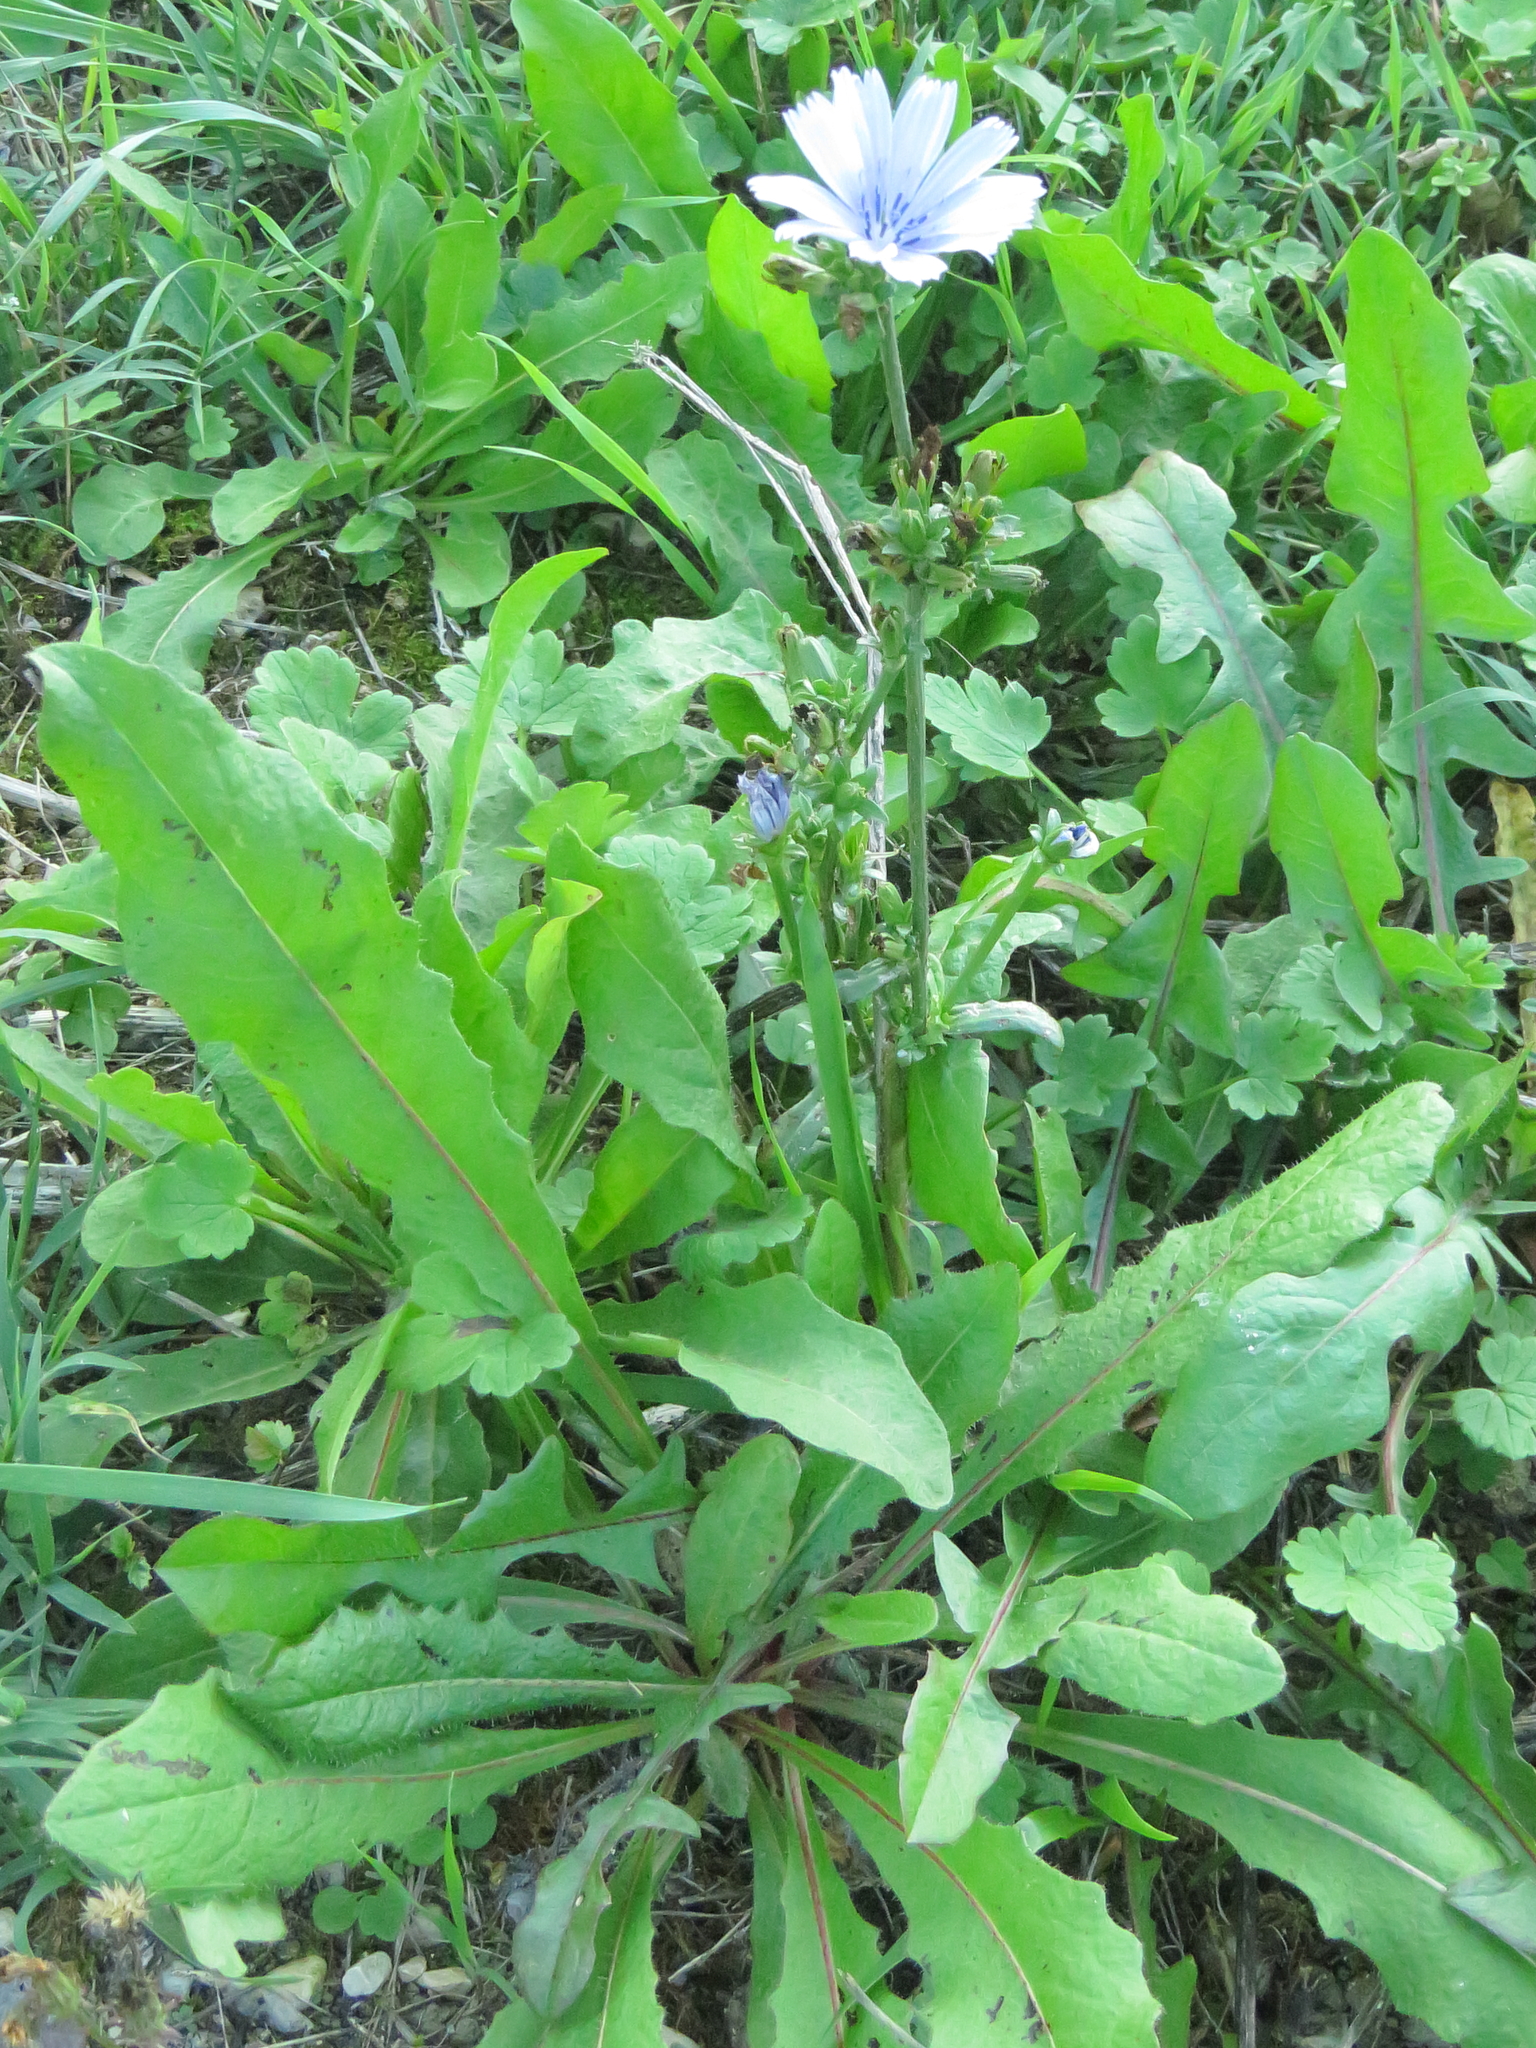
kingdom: Plantae
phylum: Tracheophyta
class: Magnoliopsida
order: Asterales
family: Asteraceae
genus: Cichorium
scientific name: Cichorium intybus
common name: Chicory
